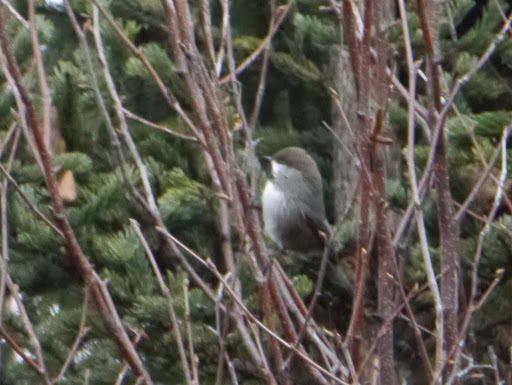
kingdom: Animalia
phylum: Chordata
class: Aves
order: Passeriformes
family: Paridae
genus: Poecile
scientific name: Poecile hudsonicus
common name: Boreal chickadee
